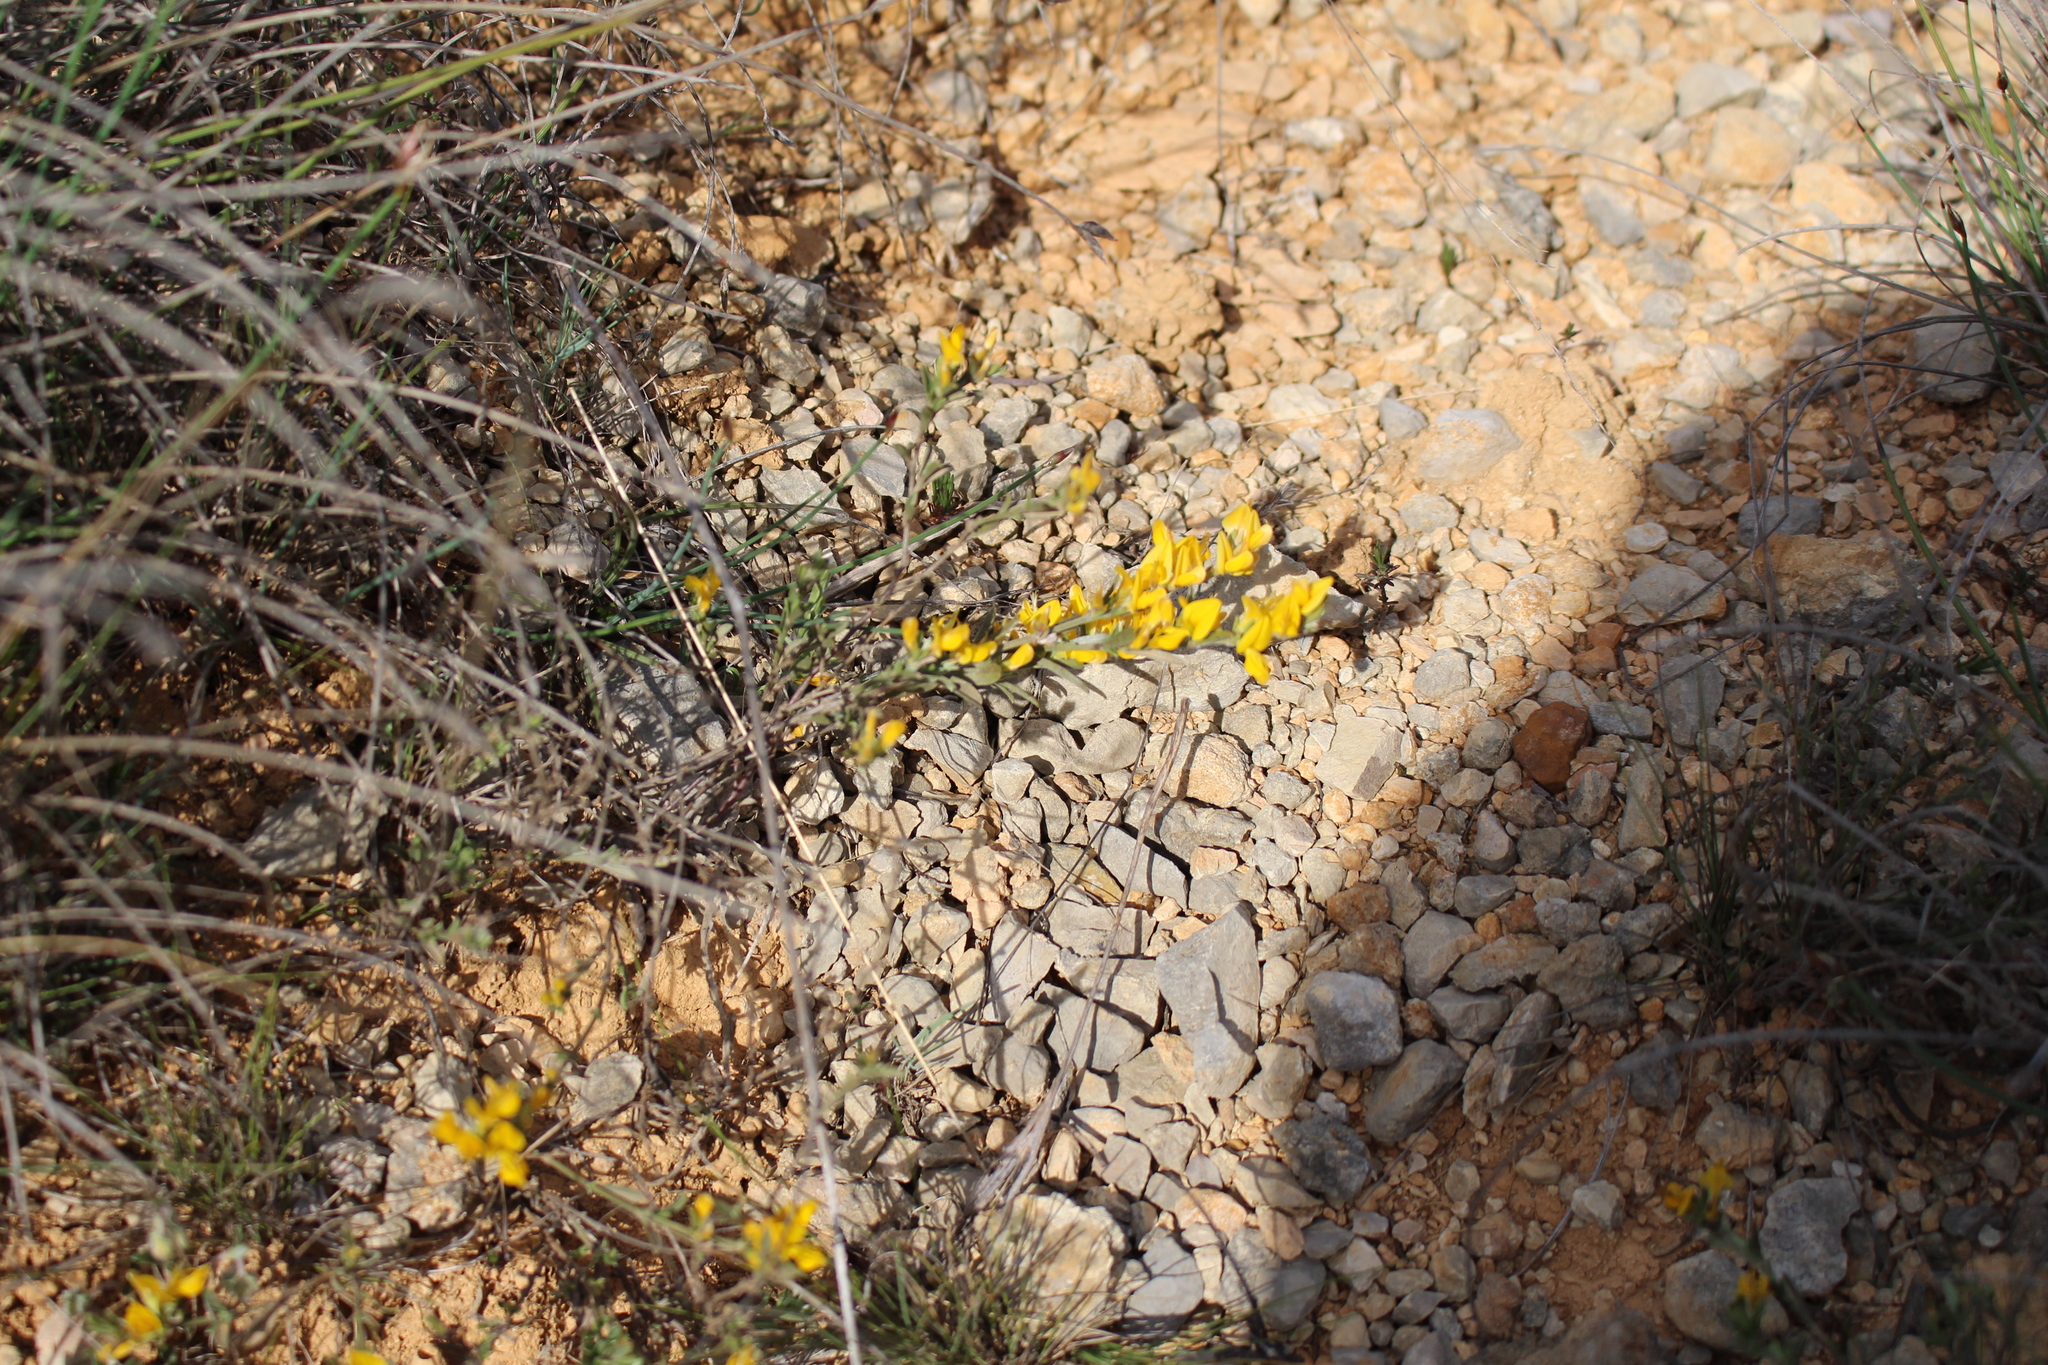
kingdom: Plantae
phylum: Tracheophyta
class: Magnoliopsida
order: Fabales
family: Fabaceae
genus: Genista
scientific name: Genista pilosa
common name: Hairy greenweed
